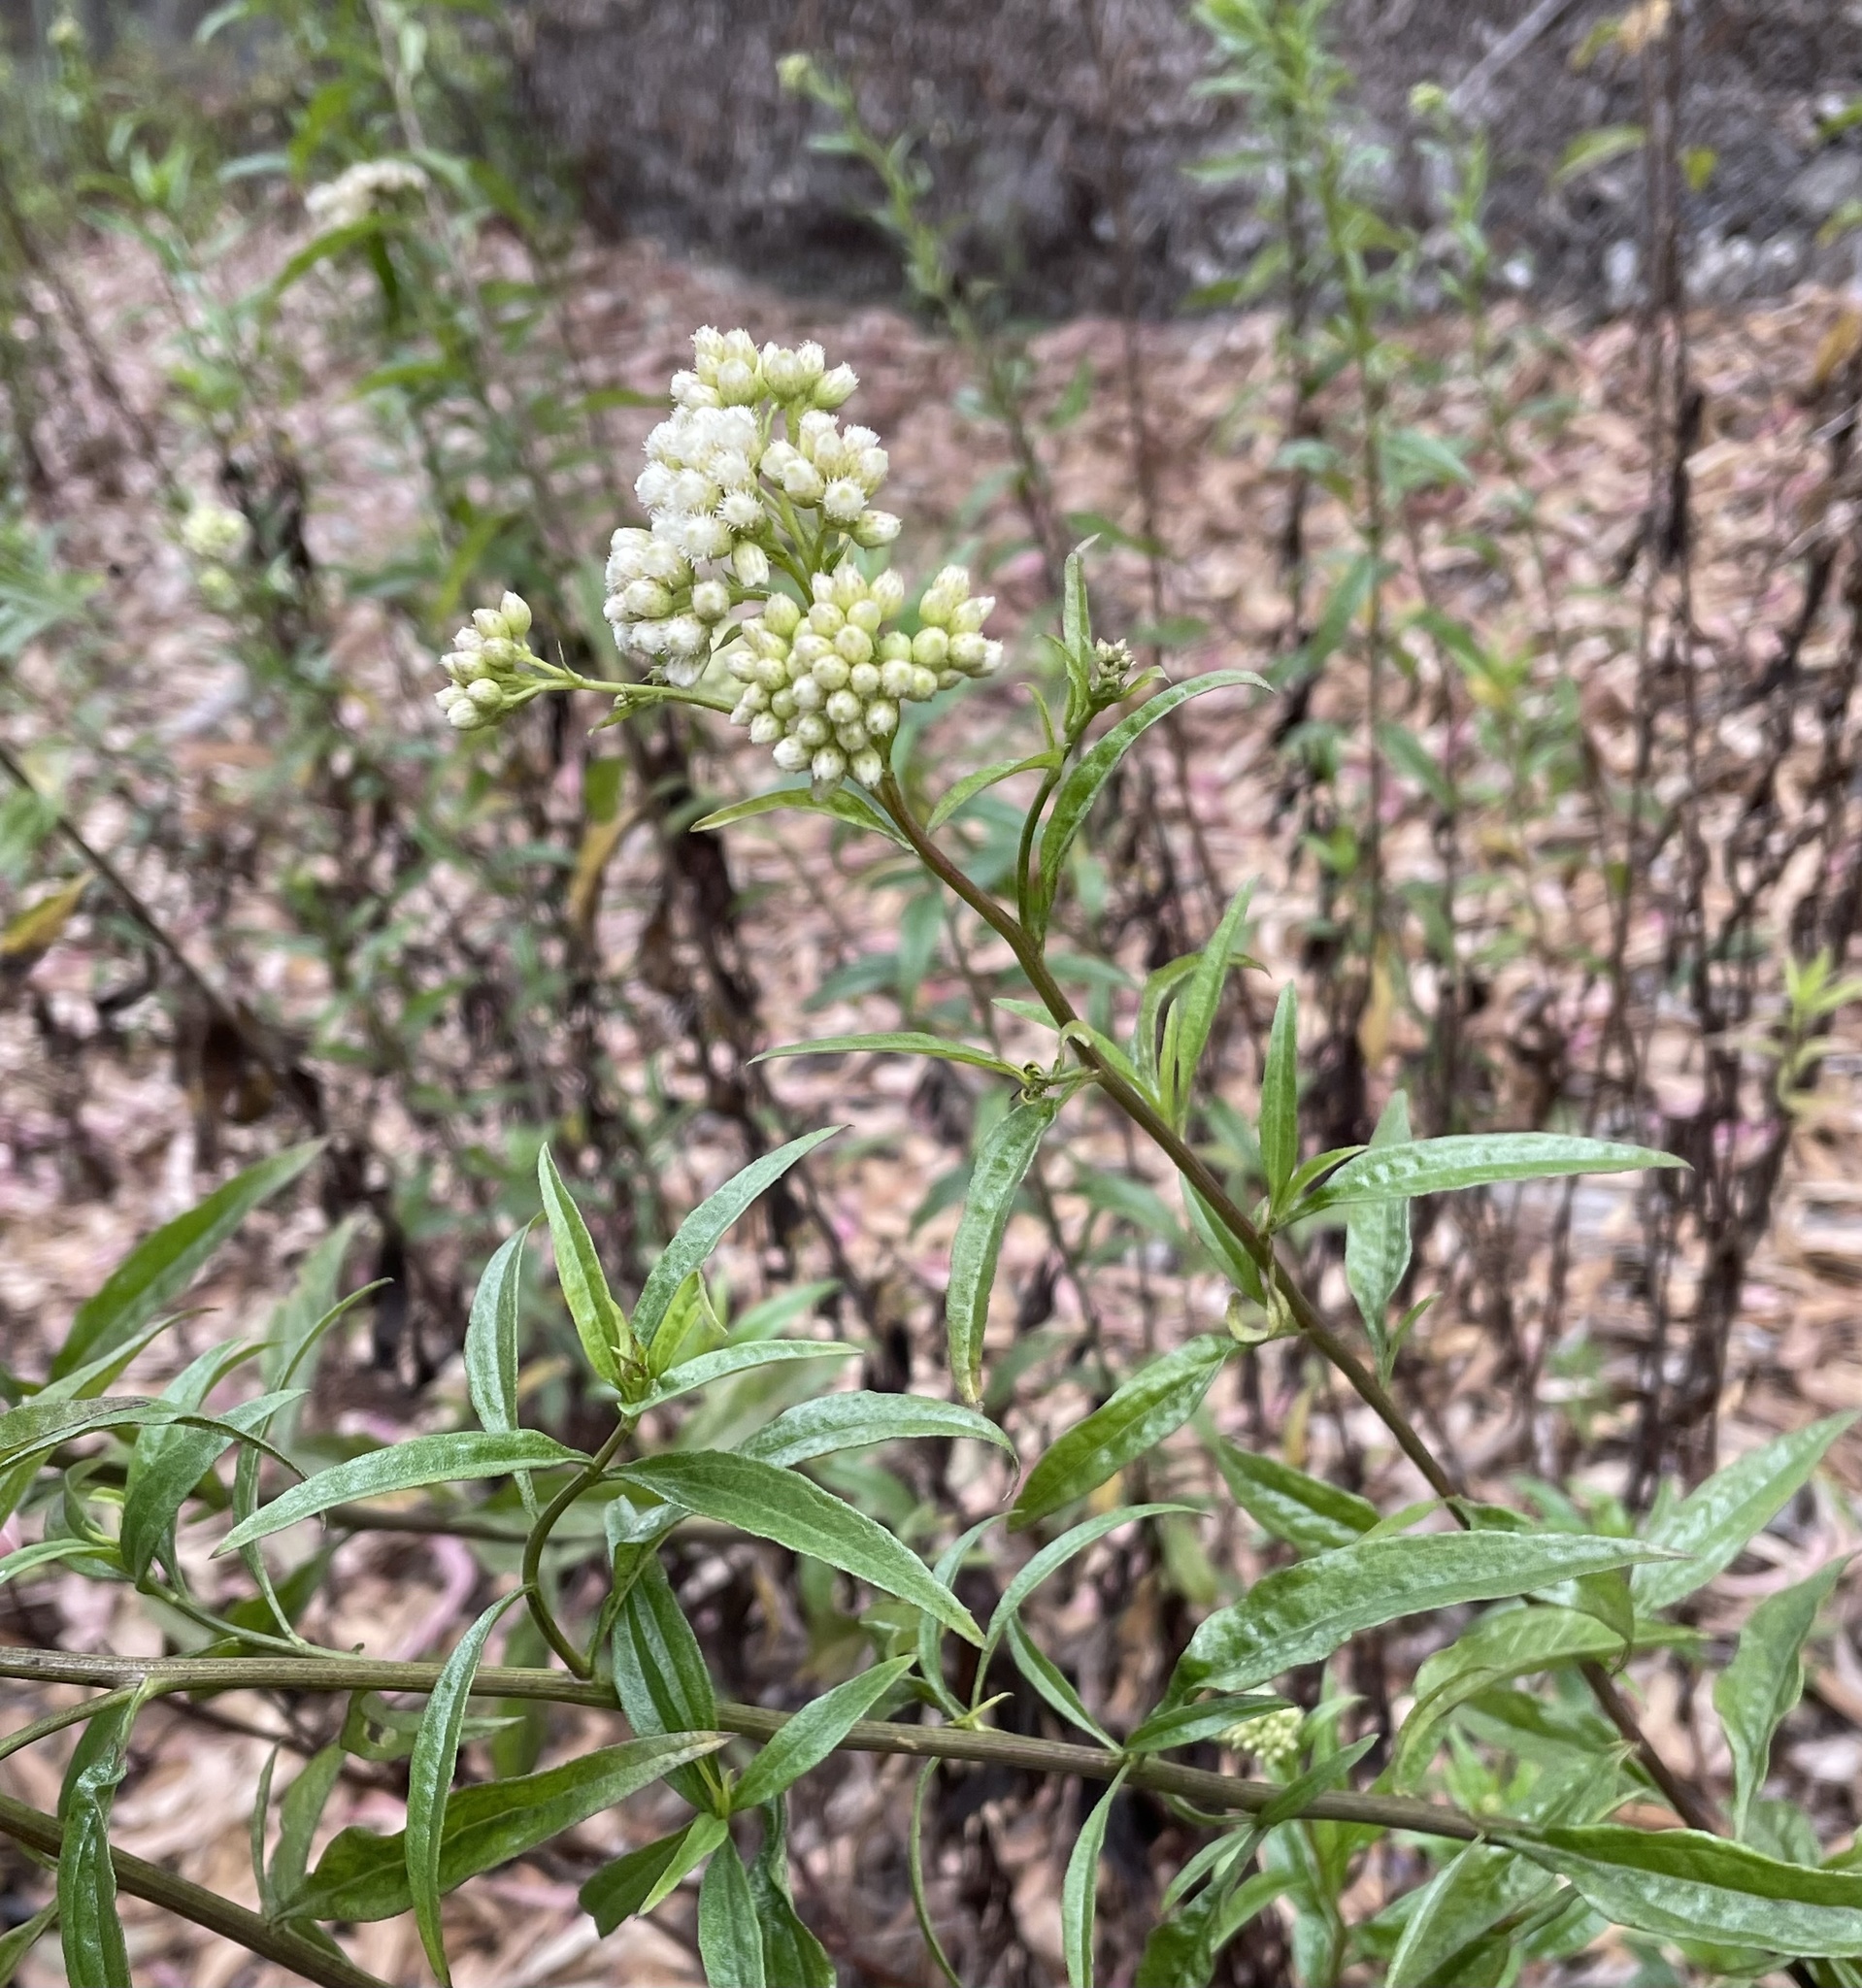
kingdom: Plantae
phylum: Tracheophyta
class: Magnoliopsida
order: Asterales
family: Asteraceae
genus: Baccharis
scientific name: Baccharis glutinosa
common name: Saltmarsh baccharis
